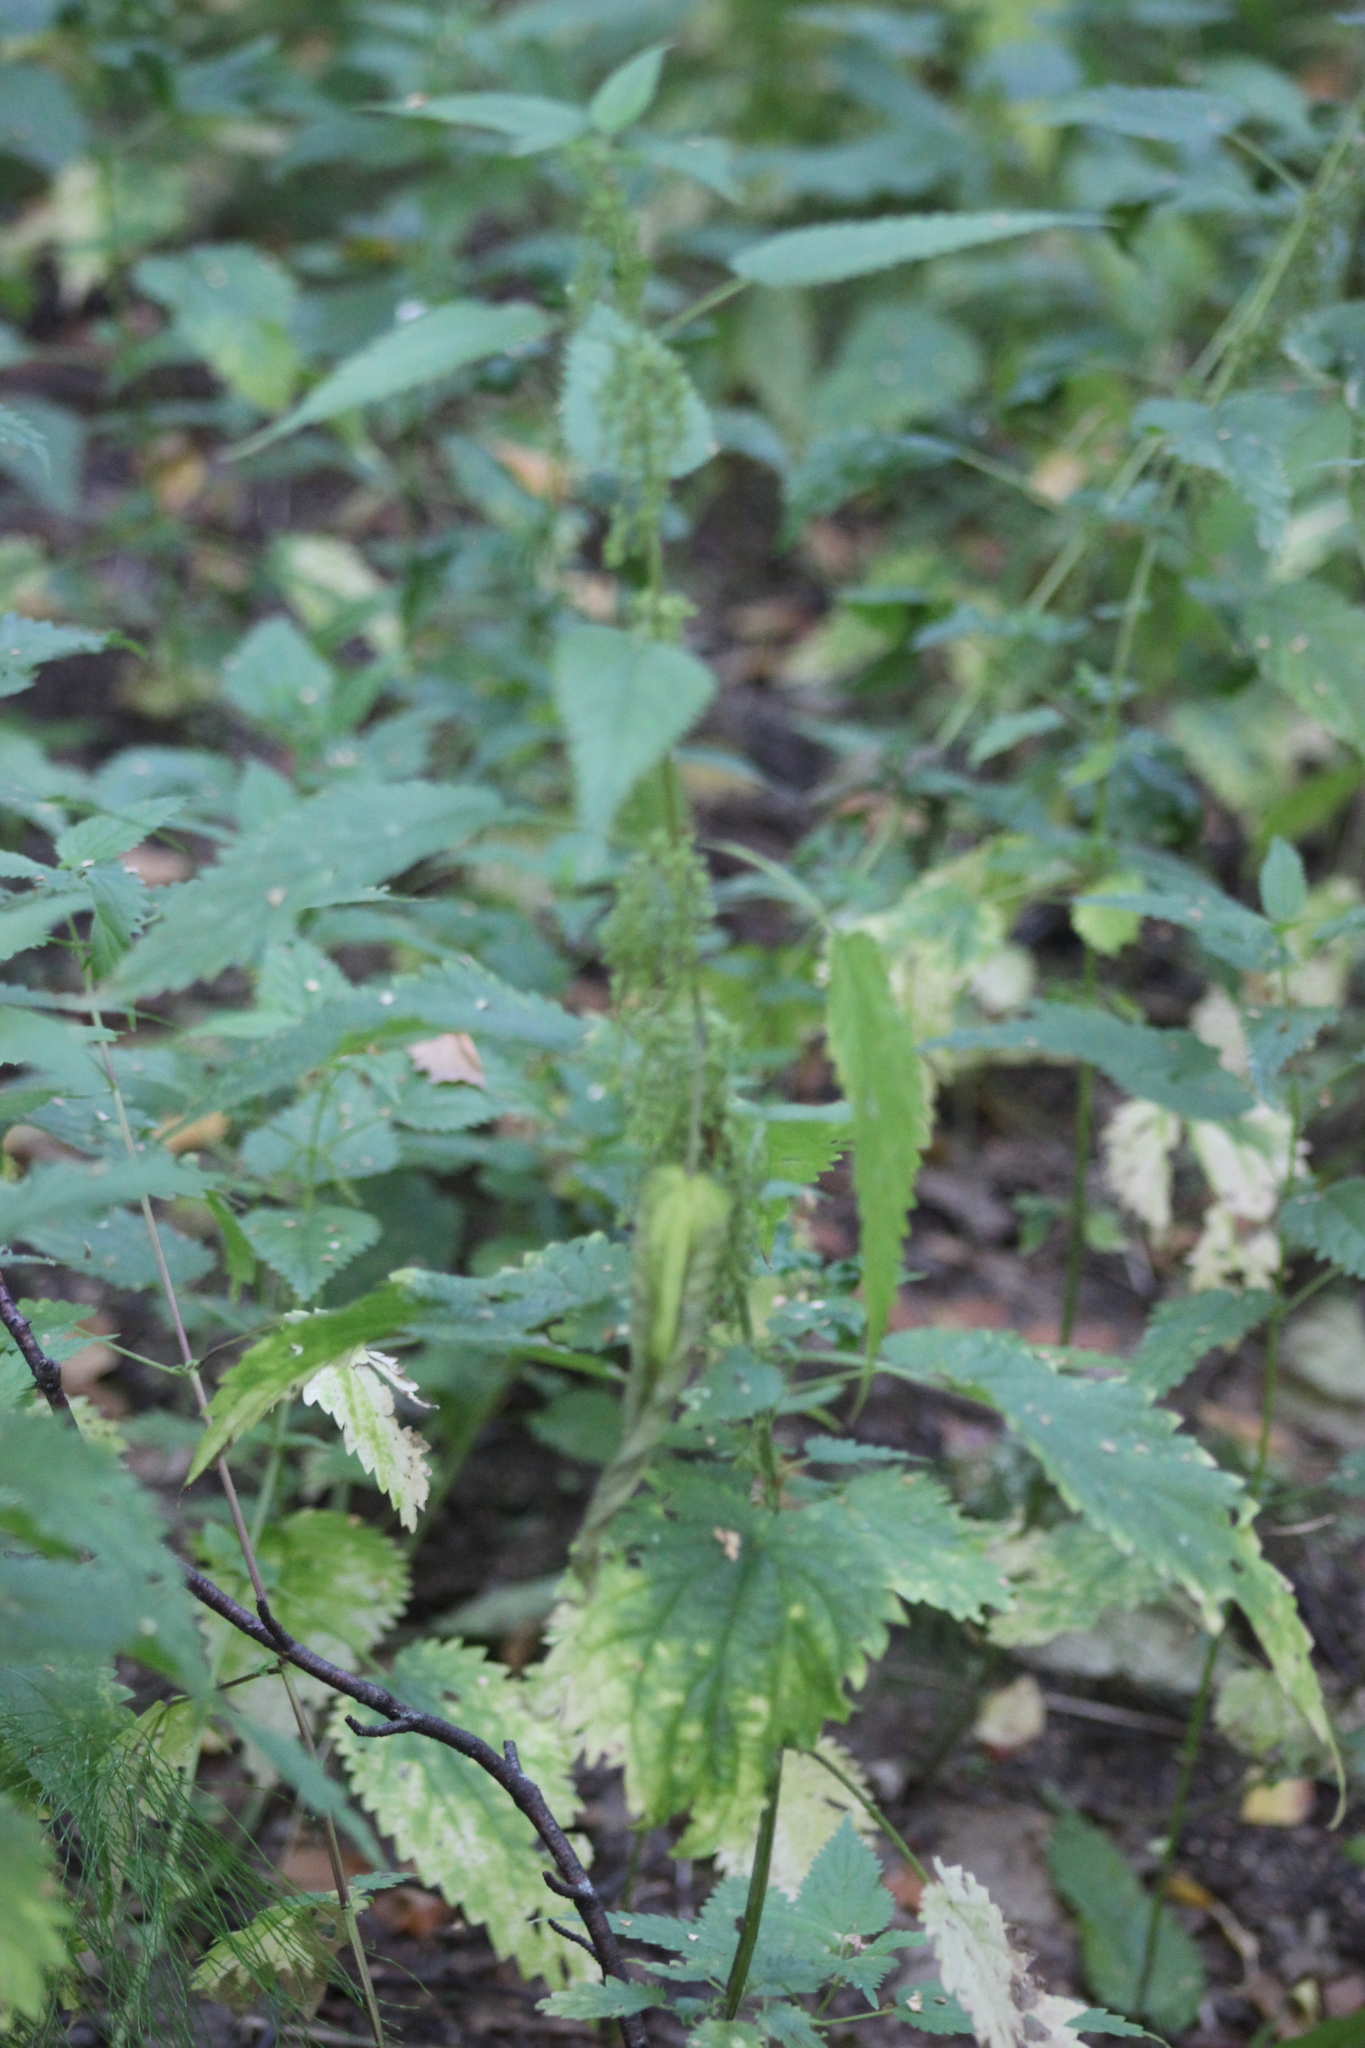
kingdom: Plantae
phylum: Tracheophyta
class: Magnoliopsida
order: Rosales
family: Urticaceae
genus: Urtica
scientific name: Urtica dioica
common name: Common nettle
